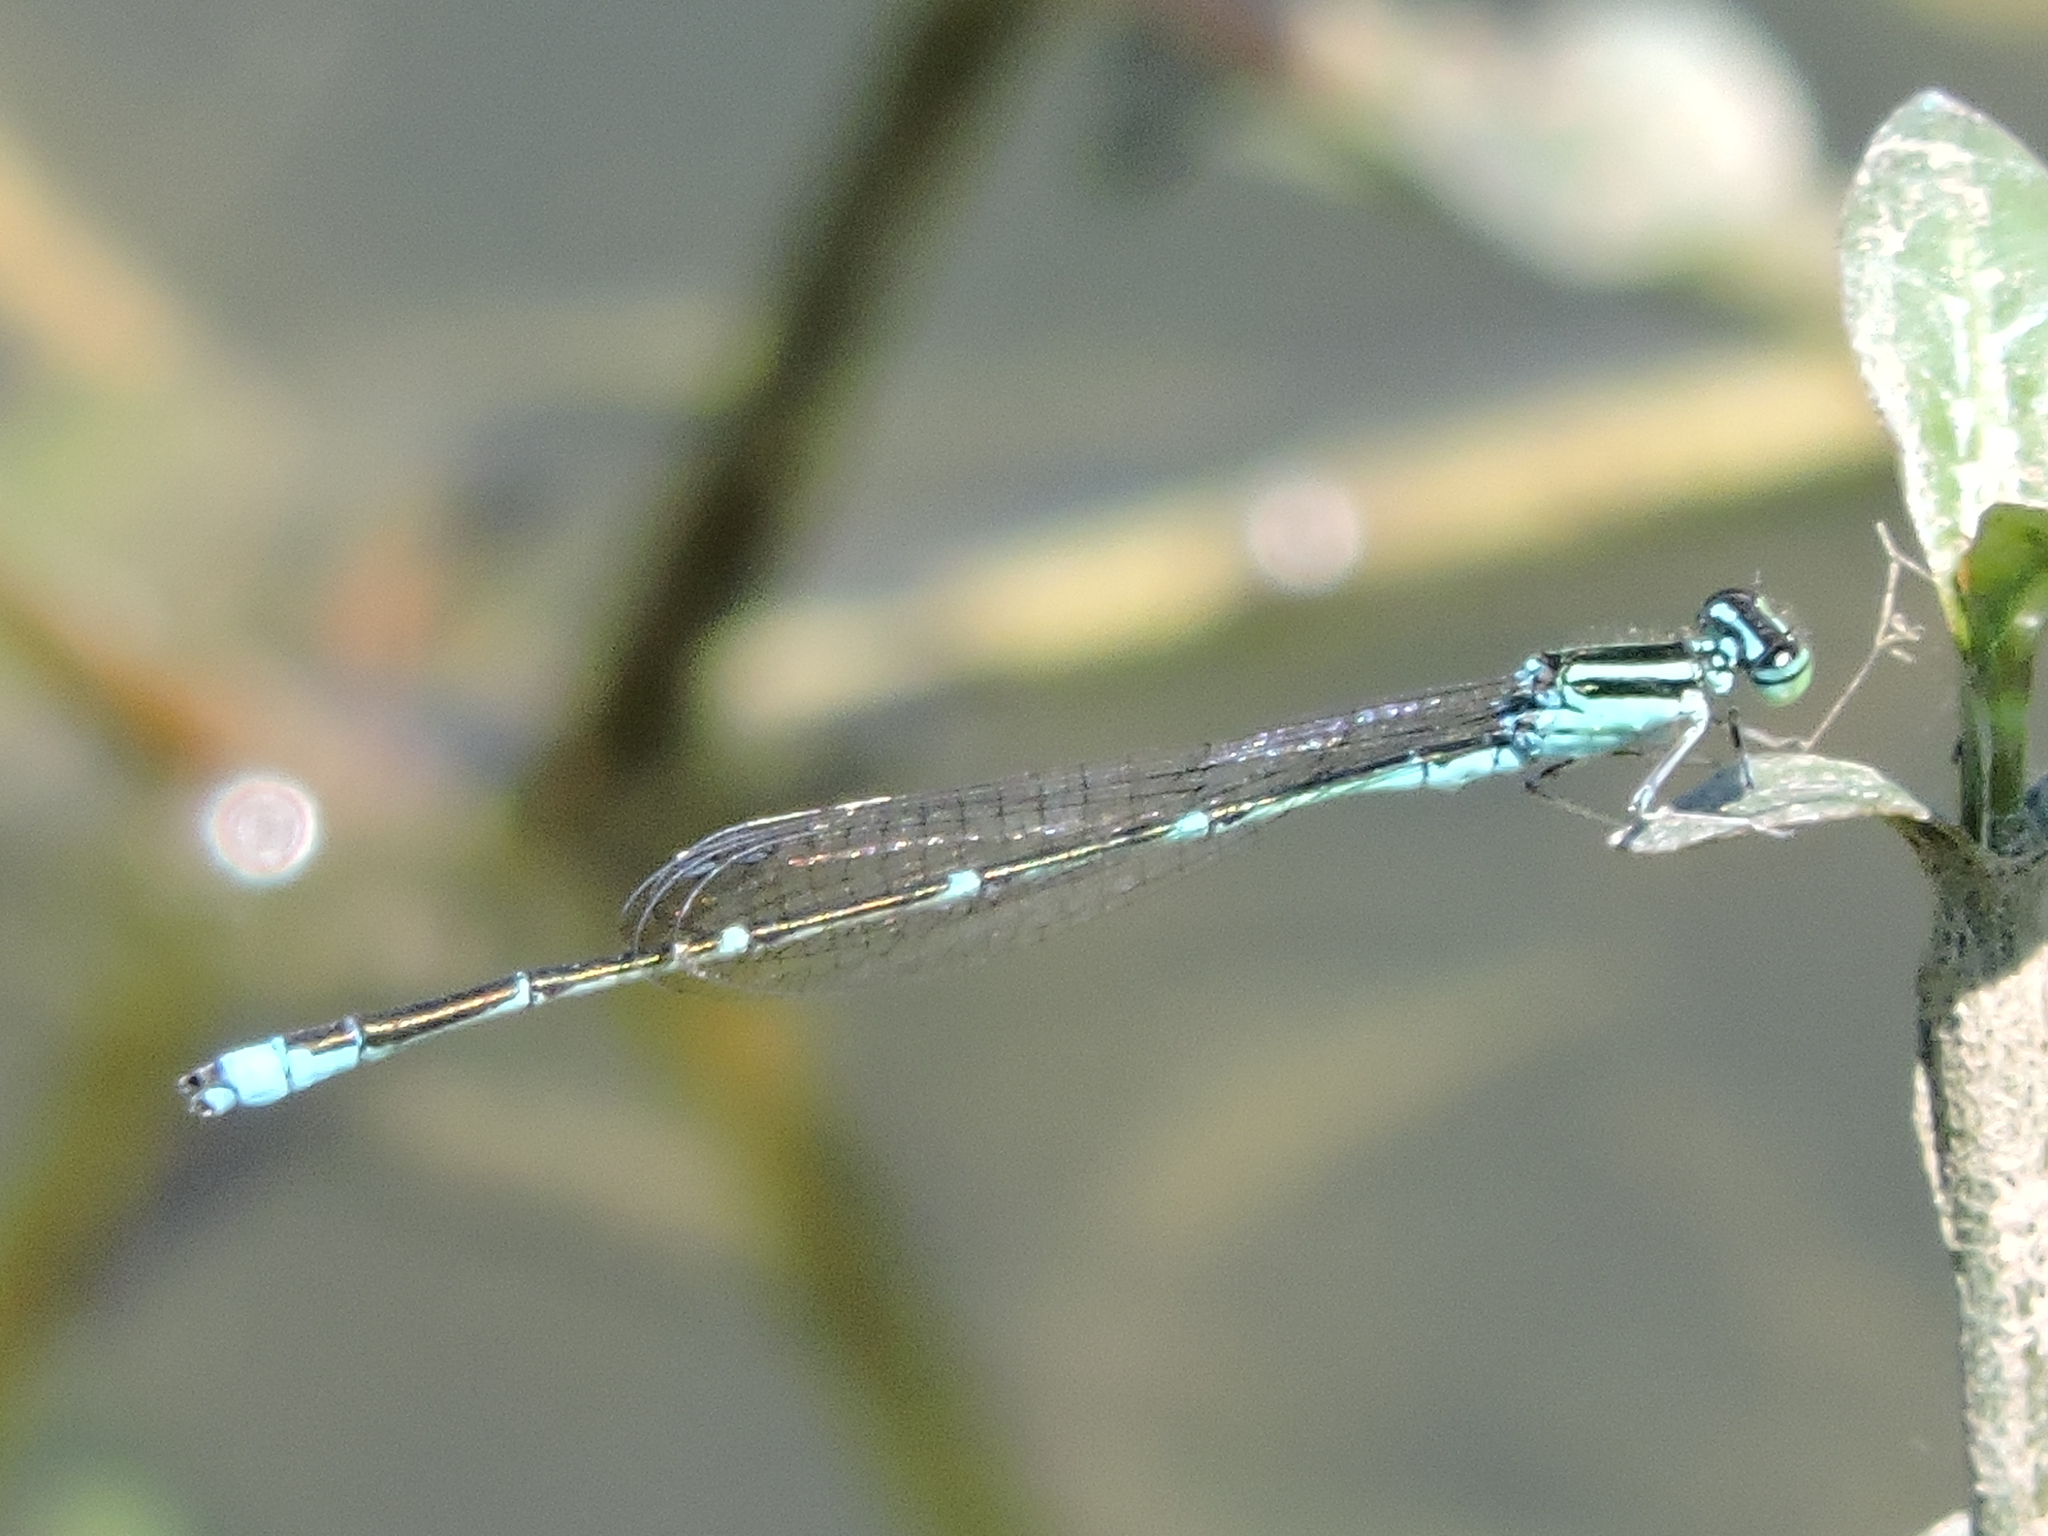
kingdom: Animalia
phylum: Arthropoda
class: Insecta
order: Odonata
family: Coenagrionidae
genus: Enallagma
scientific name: Enallagma exsulans
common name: Stream bluet
